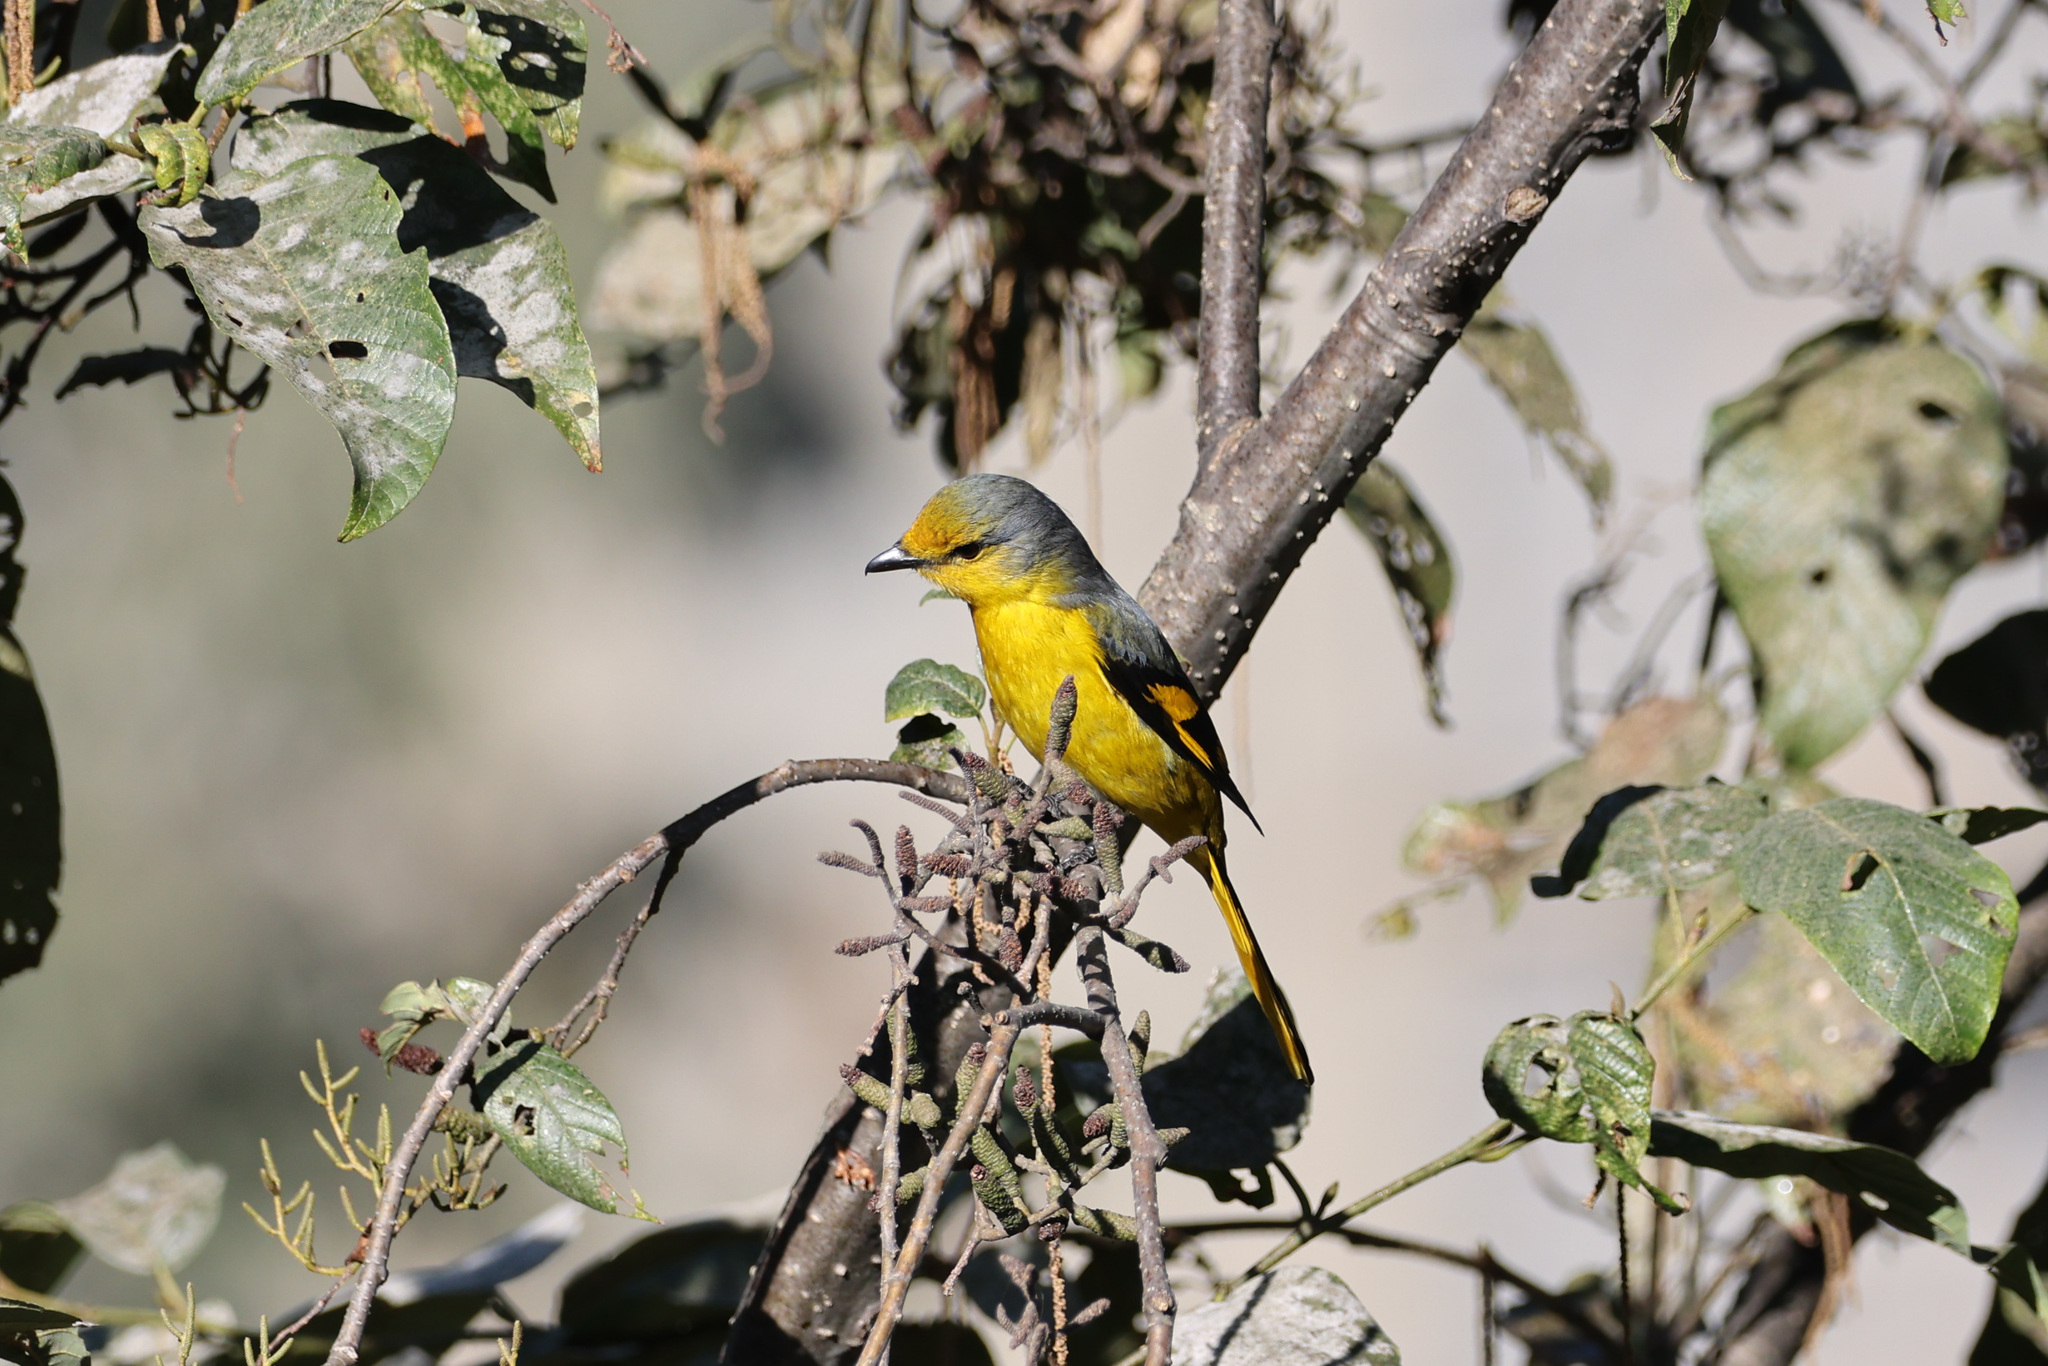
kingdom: Animalia
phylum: Chordata
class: Aves
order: Passeriformes
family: Campephagidae
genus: Pericrocotus
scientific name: Pericrocotus speciosus
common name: Scarlet minivet
